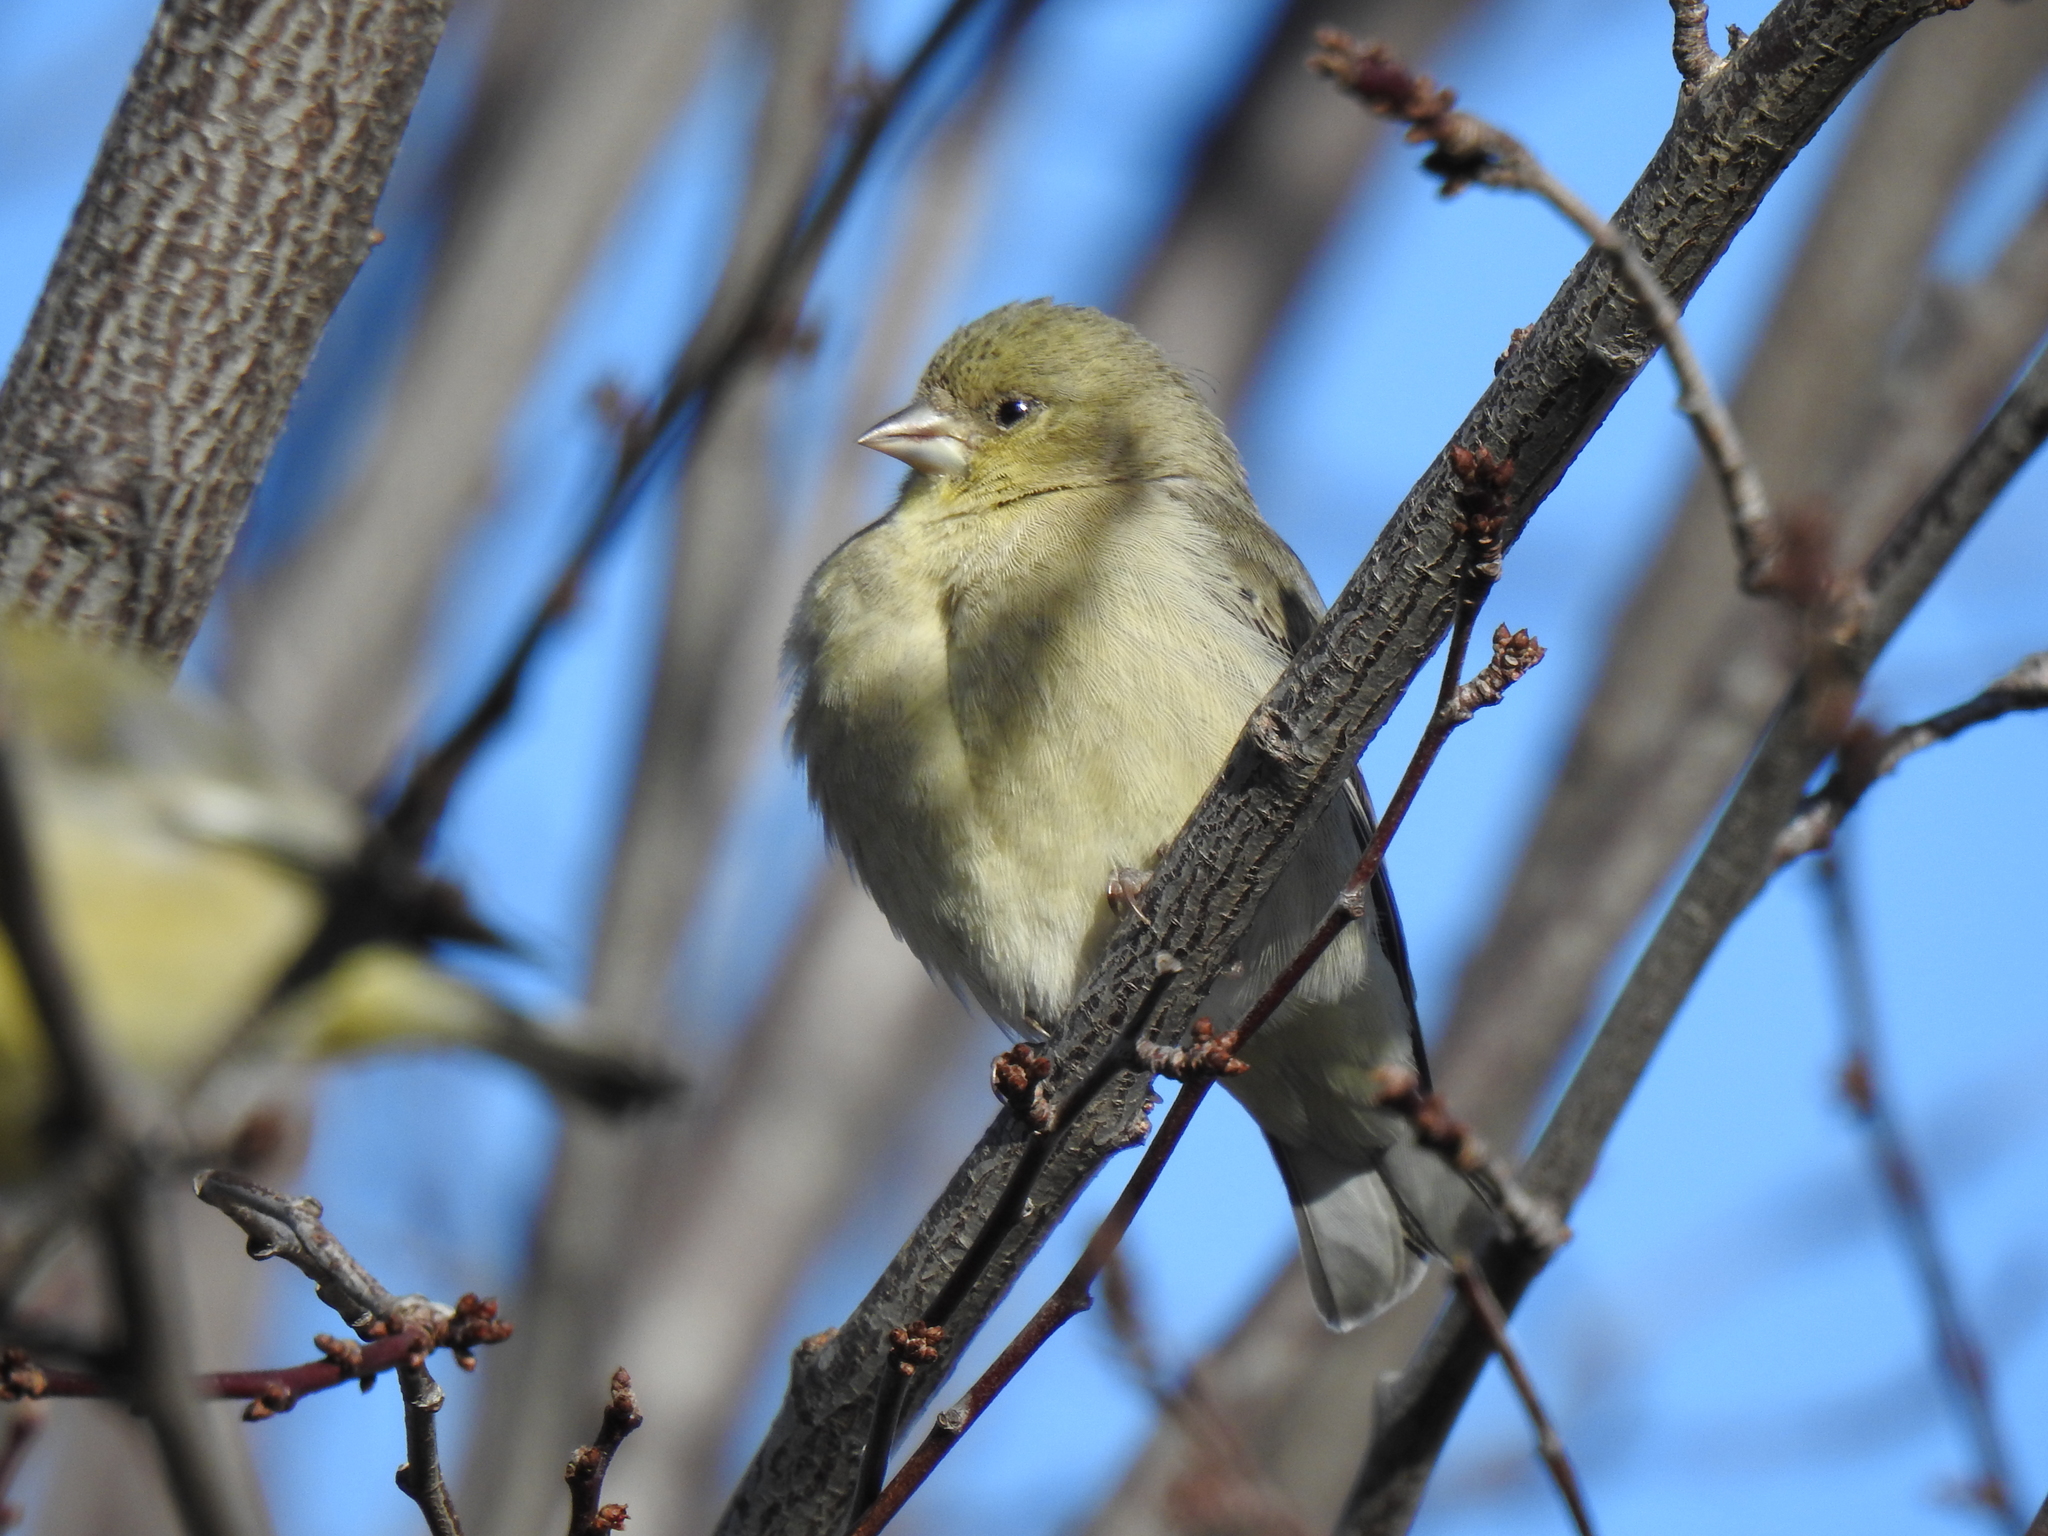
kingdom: Animalia
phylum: Chordata
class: Aves
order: Passeriformes
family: Fringillidae
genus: Spinus
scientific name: Spinus psaltria
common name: Lesser goldfinch
